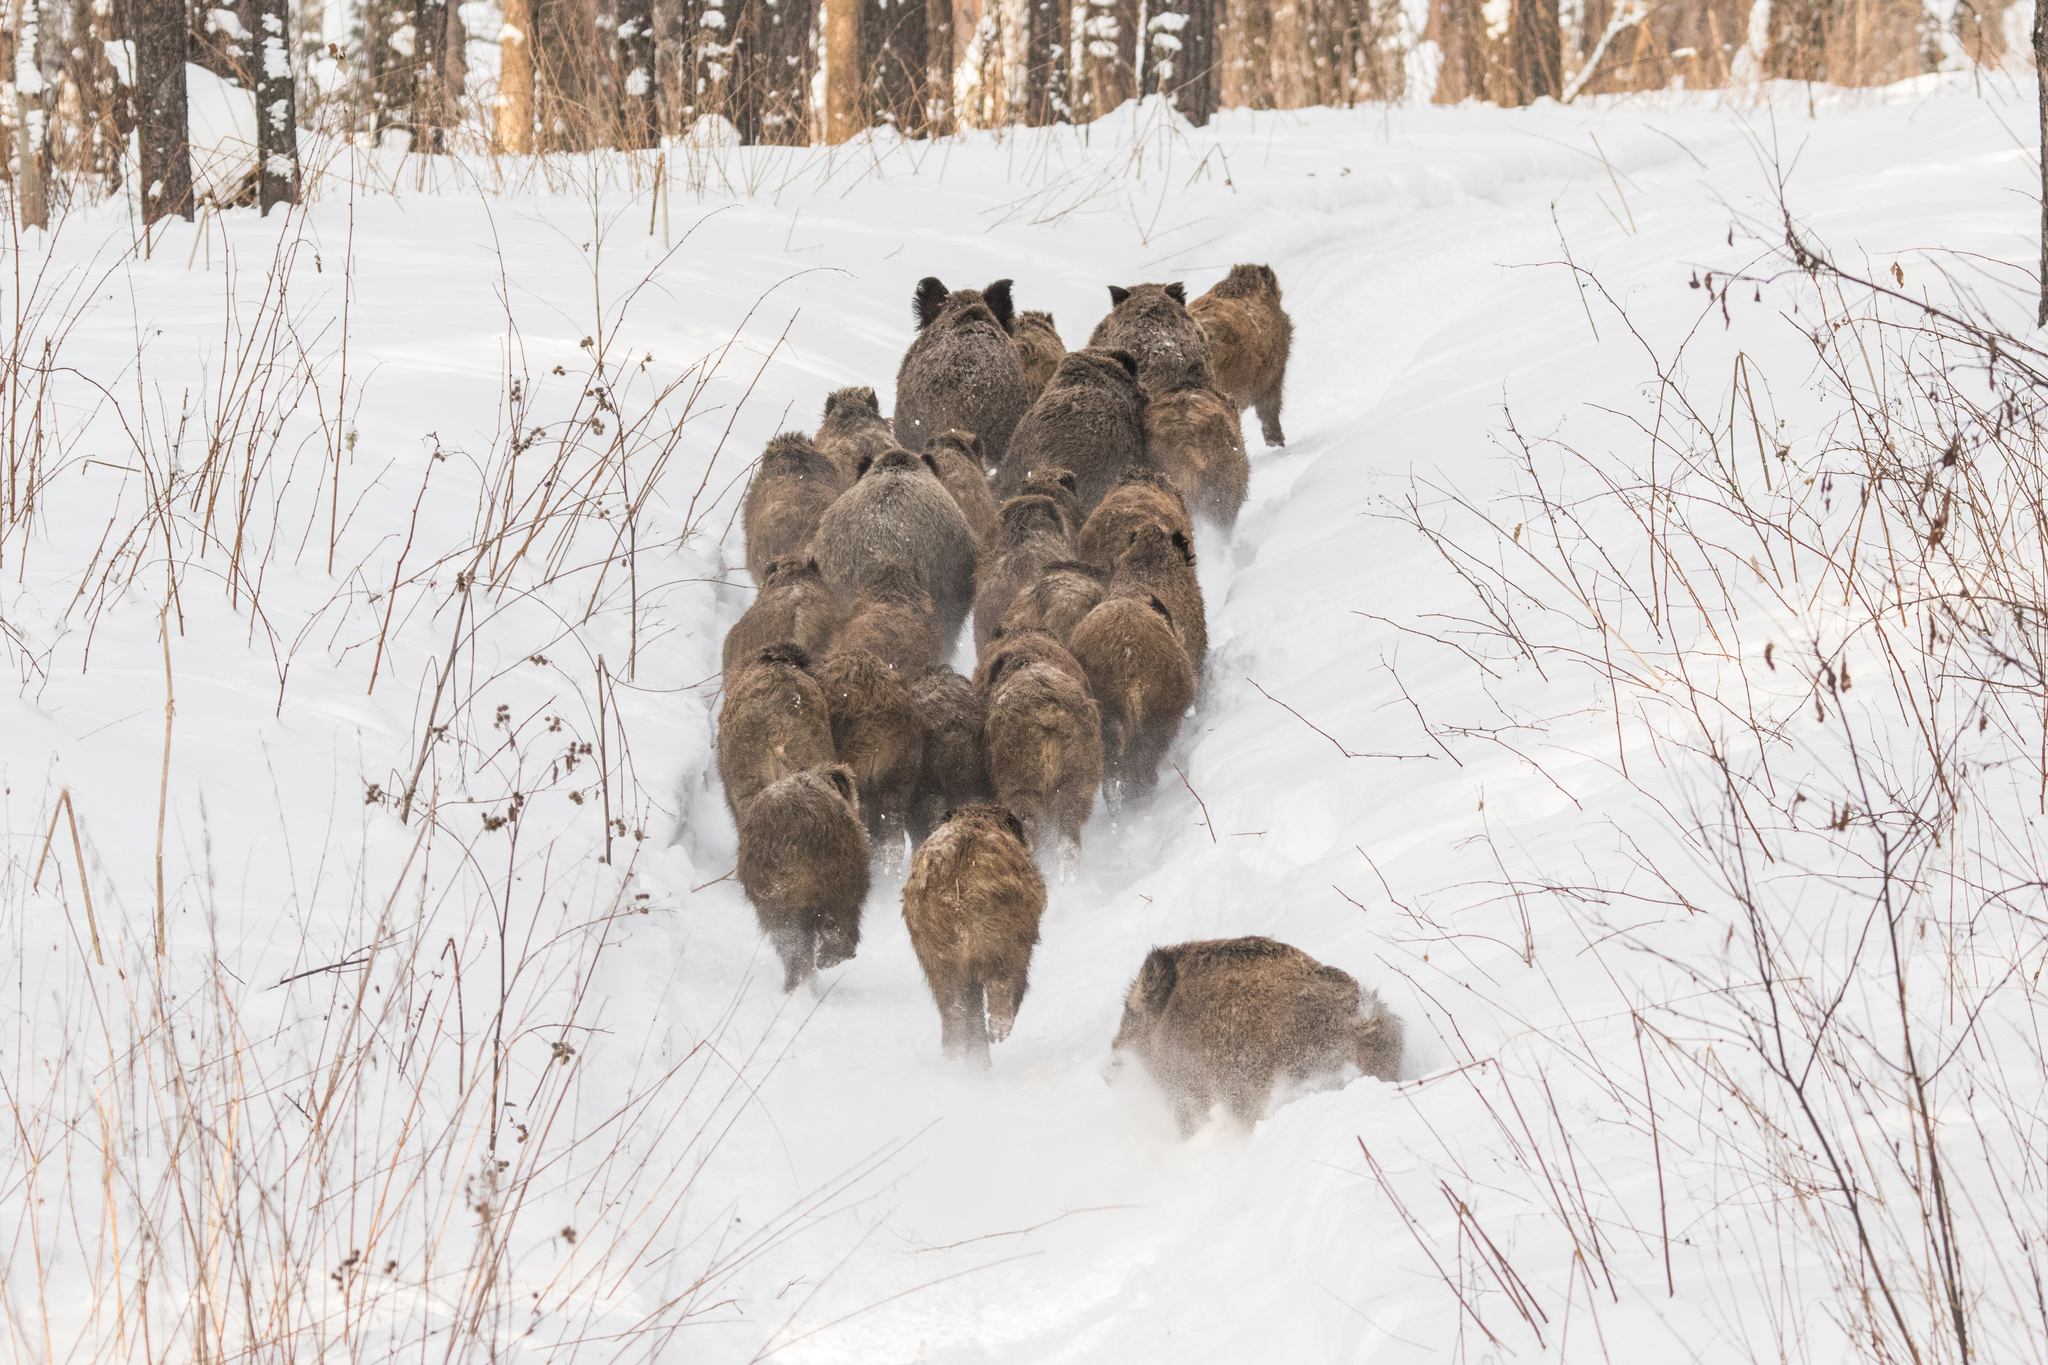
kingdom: Animalia
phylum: Chordata
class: Mammalia
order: Artiodactyla
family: Suidae
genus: Sus
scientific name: Sus scrofa
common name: Wild boar
